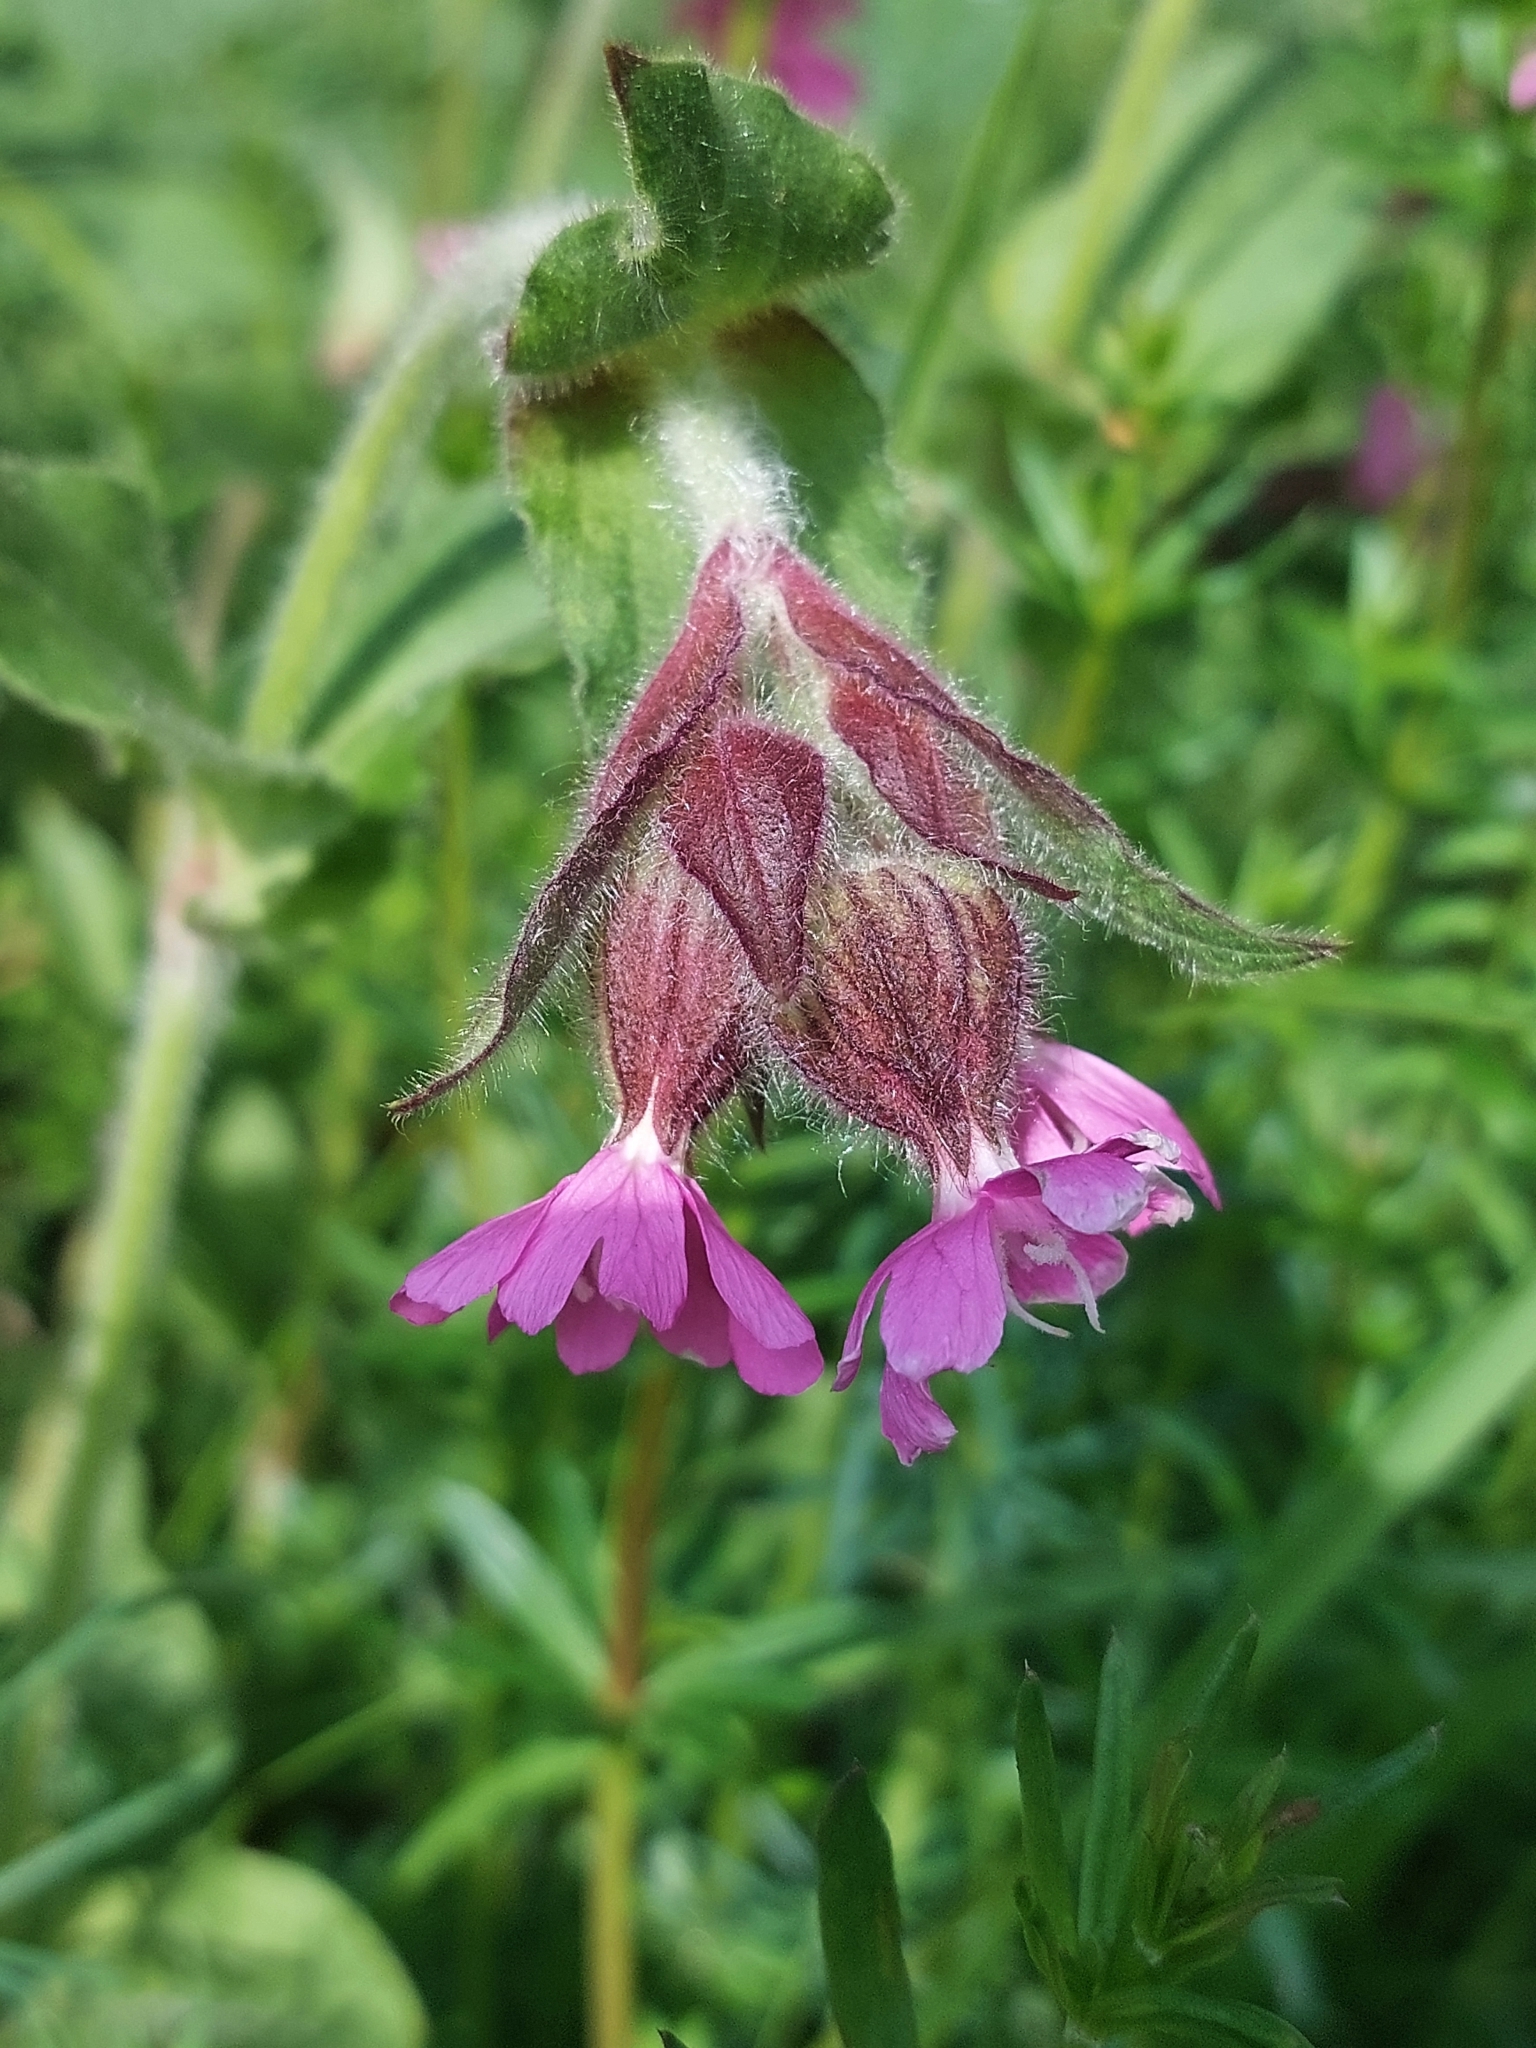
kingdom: Plantae
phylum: Tracheophyta
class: Magnoliopsida
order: Caryophyllales
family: Caryophyllaceae
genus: Silene
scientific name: Silene dioica
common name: Red campion
